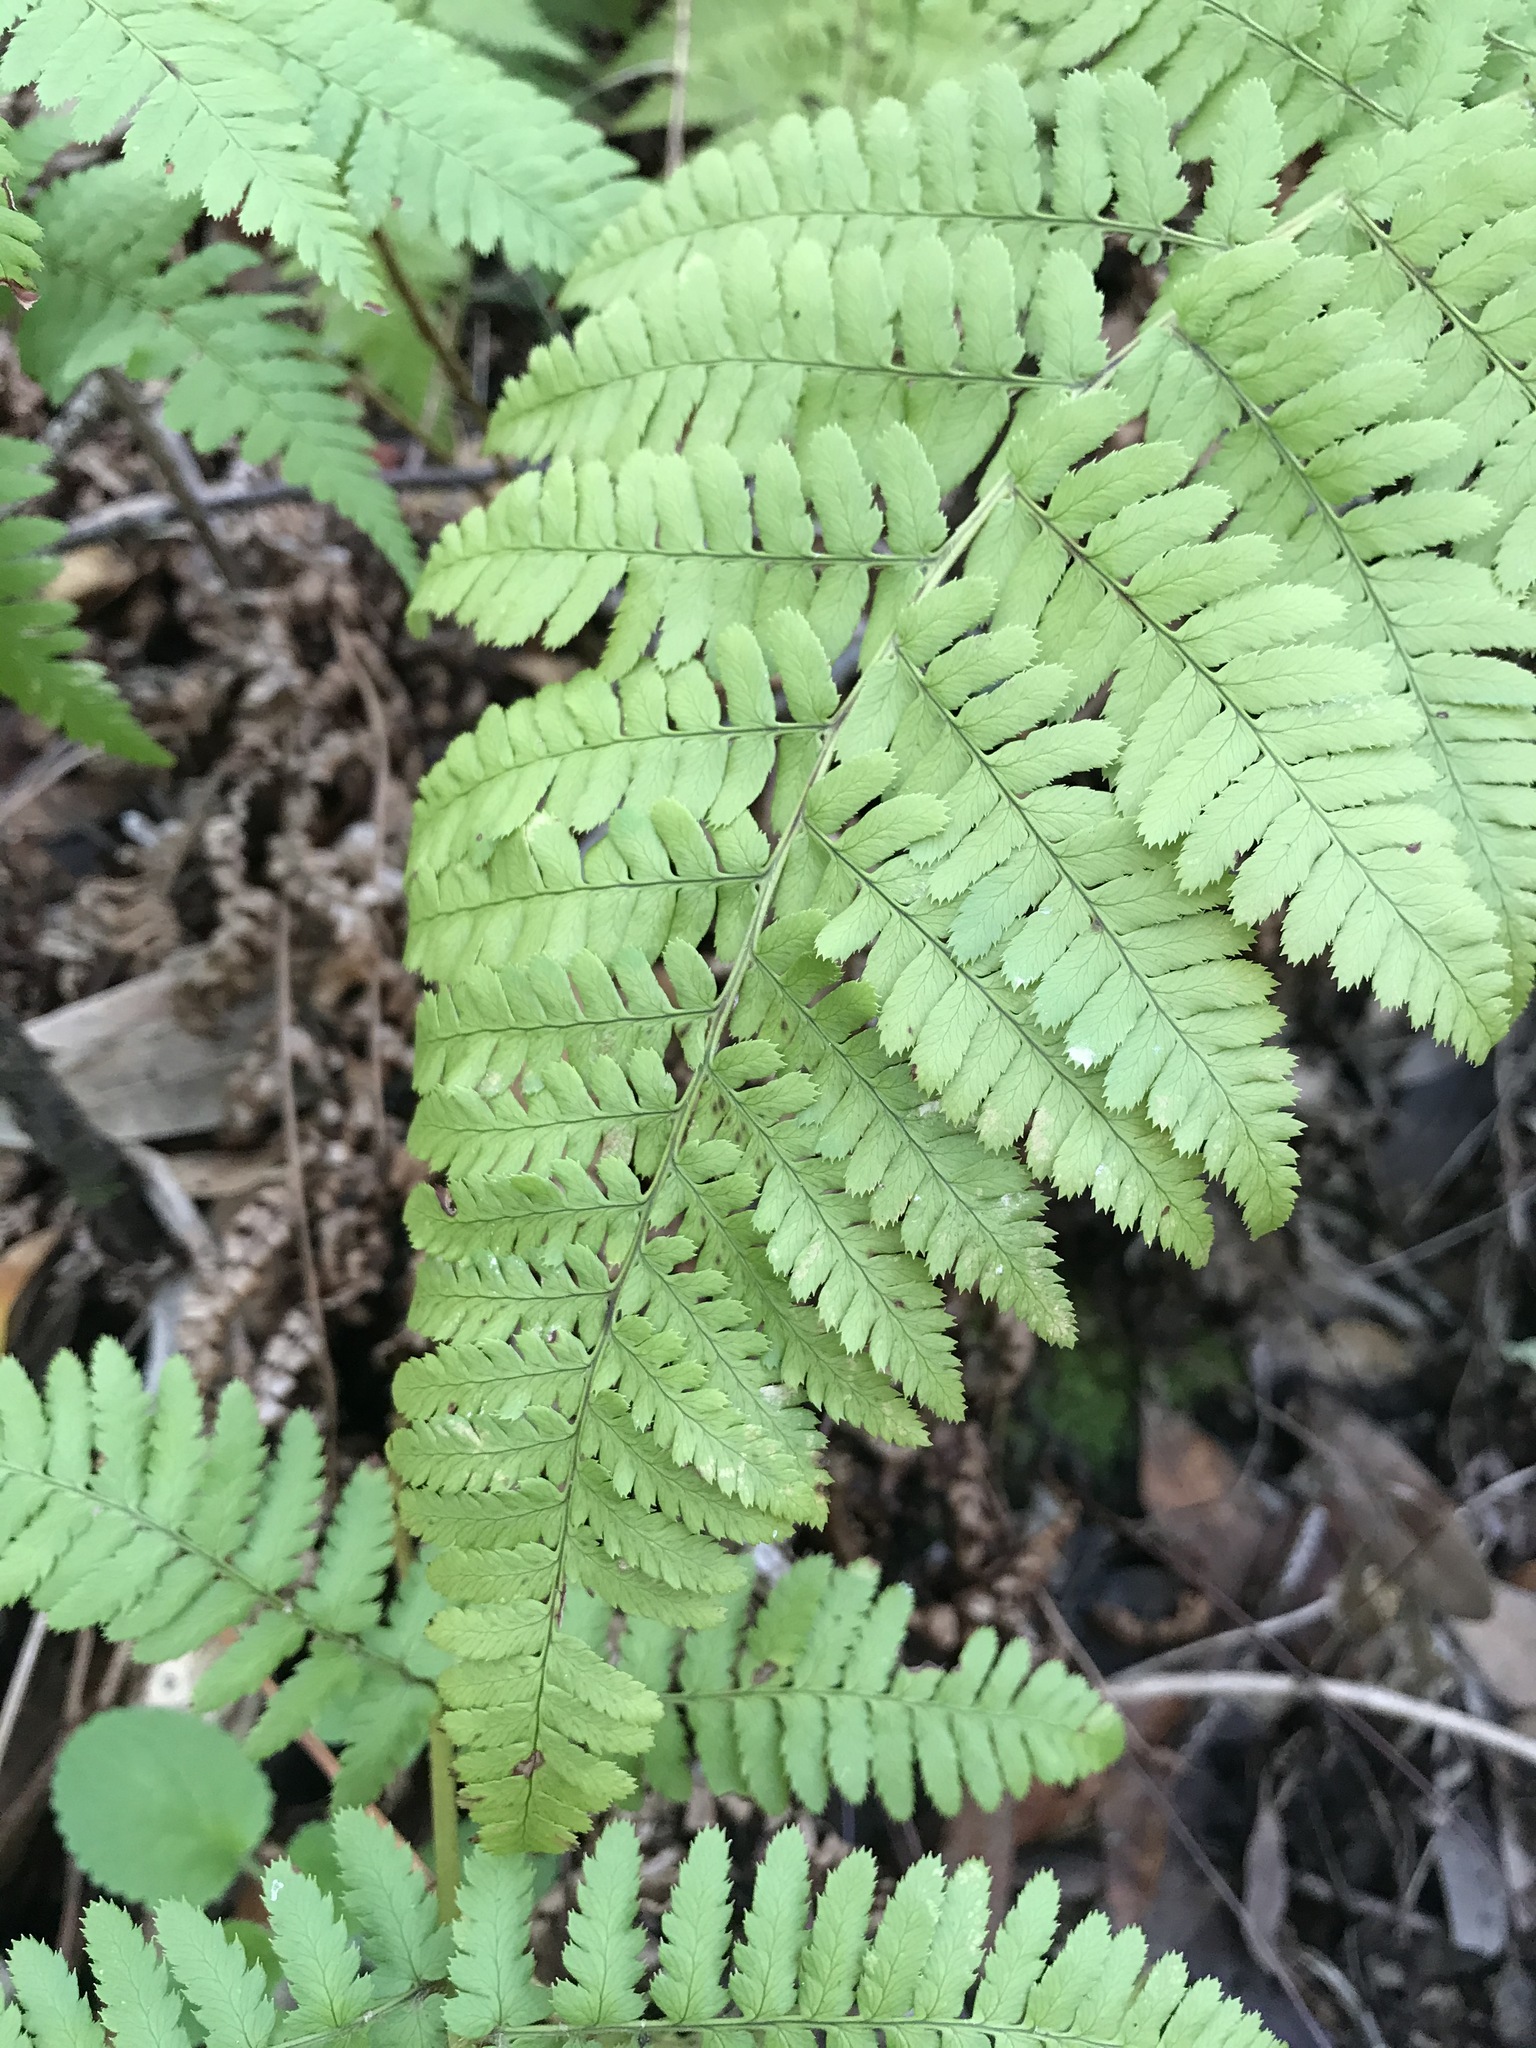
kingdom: Plantae
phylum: Tracheophyta
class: Polypodiopsida
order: Polypodiales
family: Dryopteridaceae
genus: Dryopteris
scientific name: Dryopteris arguta
